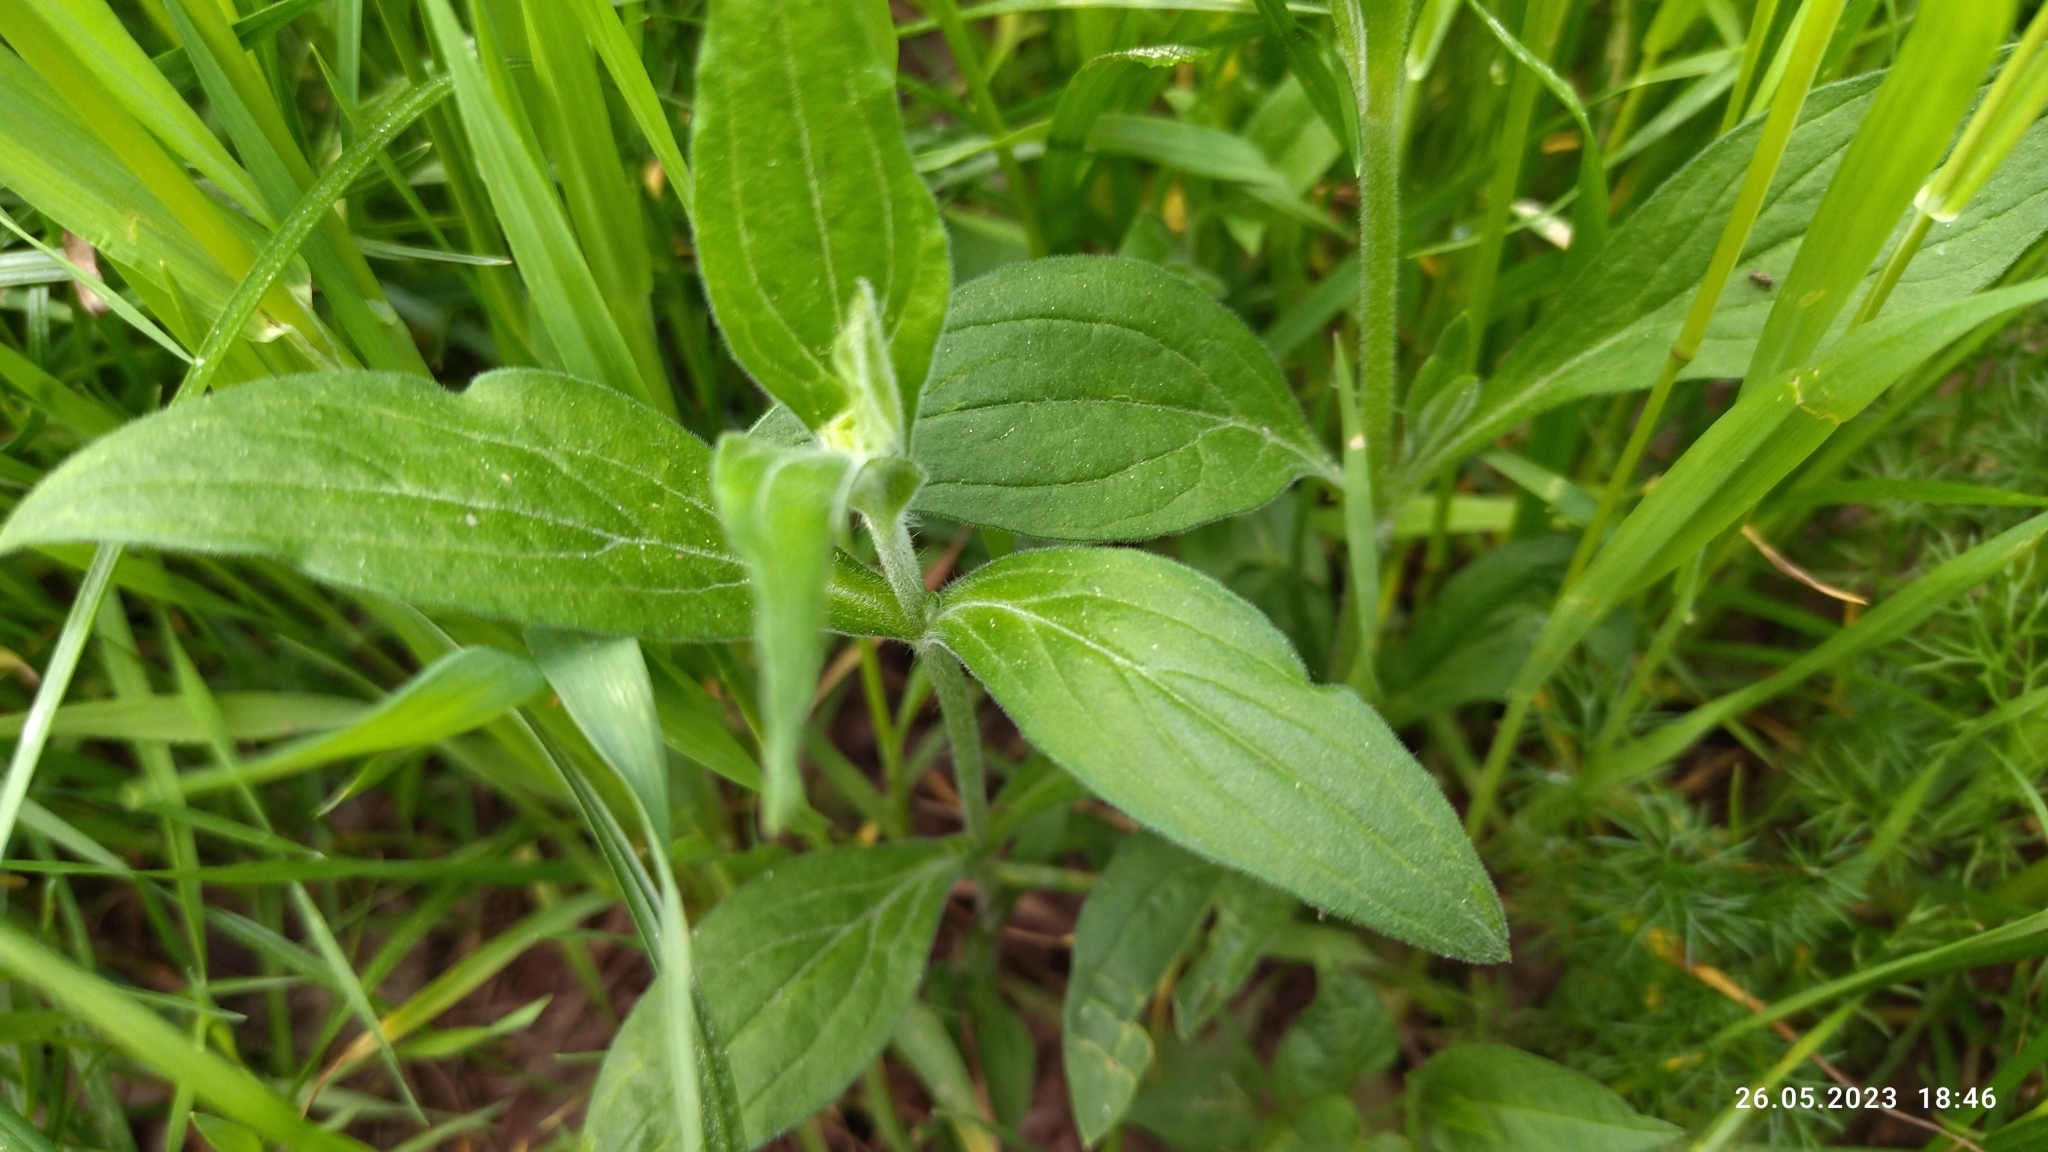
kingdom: Plantae
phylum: Tracheophyta
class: Magnoliopsida
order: Caryophyllales
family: Caryophyllaceae
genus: Silene
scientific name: Silene latifolia
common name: White campion
